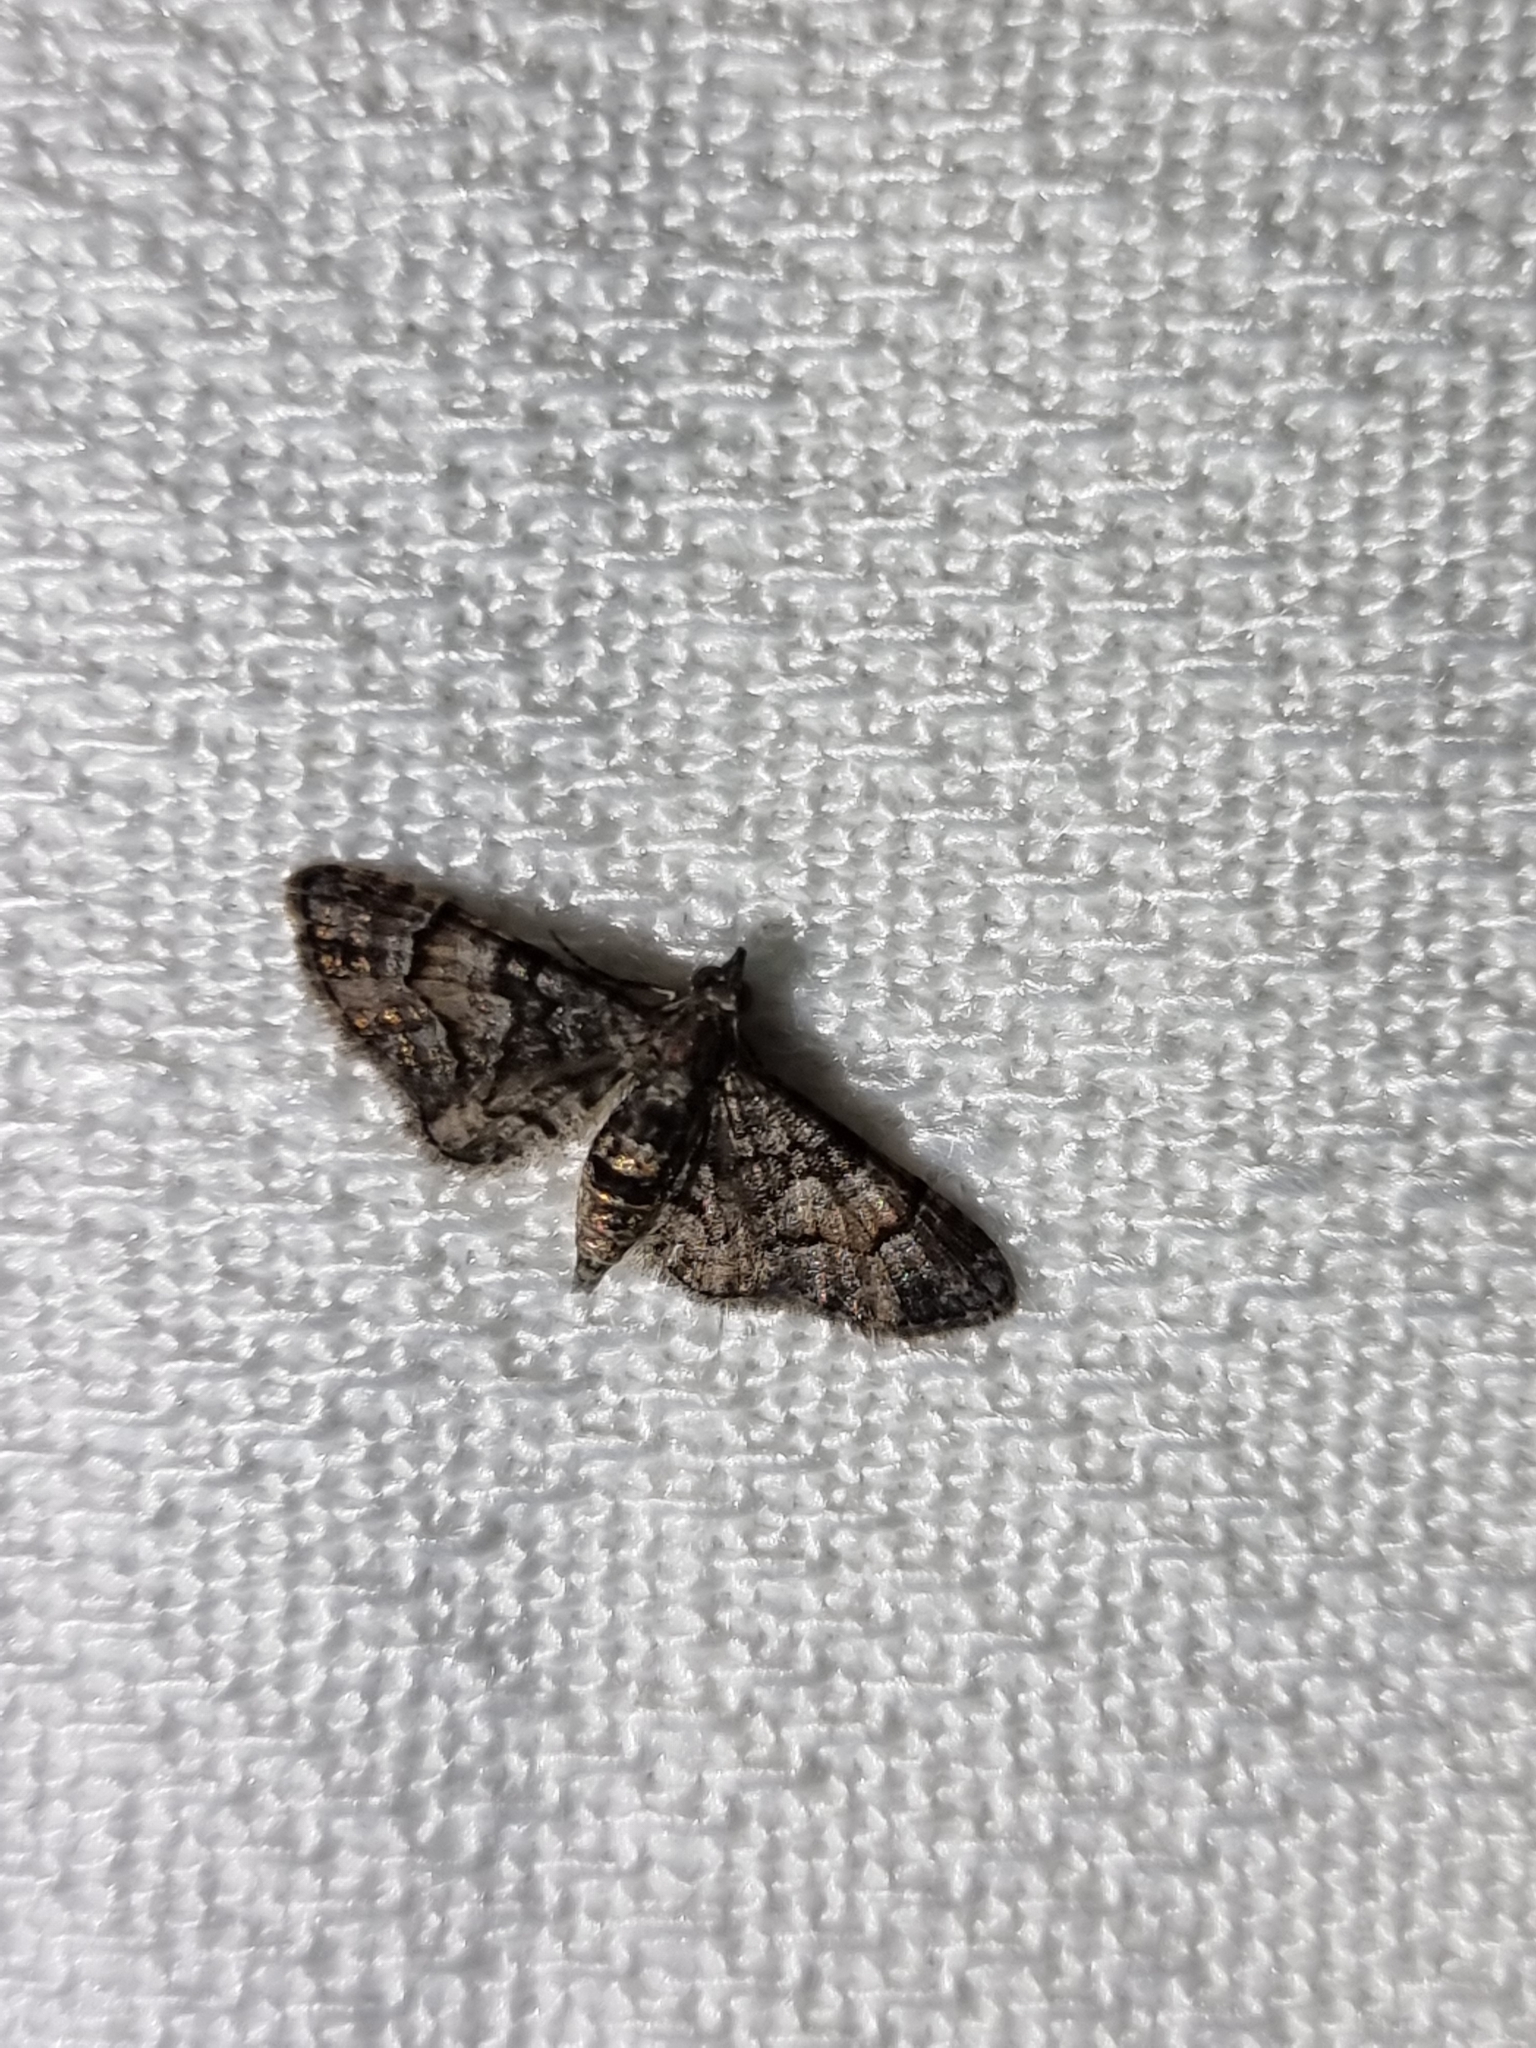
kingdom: Animalia
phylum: Arthropoda
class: Insecta
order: Lepidoptera
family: Geometridae
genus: Chloroclystis
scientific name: Chloroclystis metallospora
